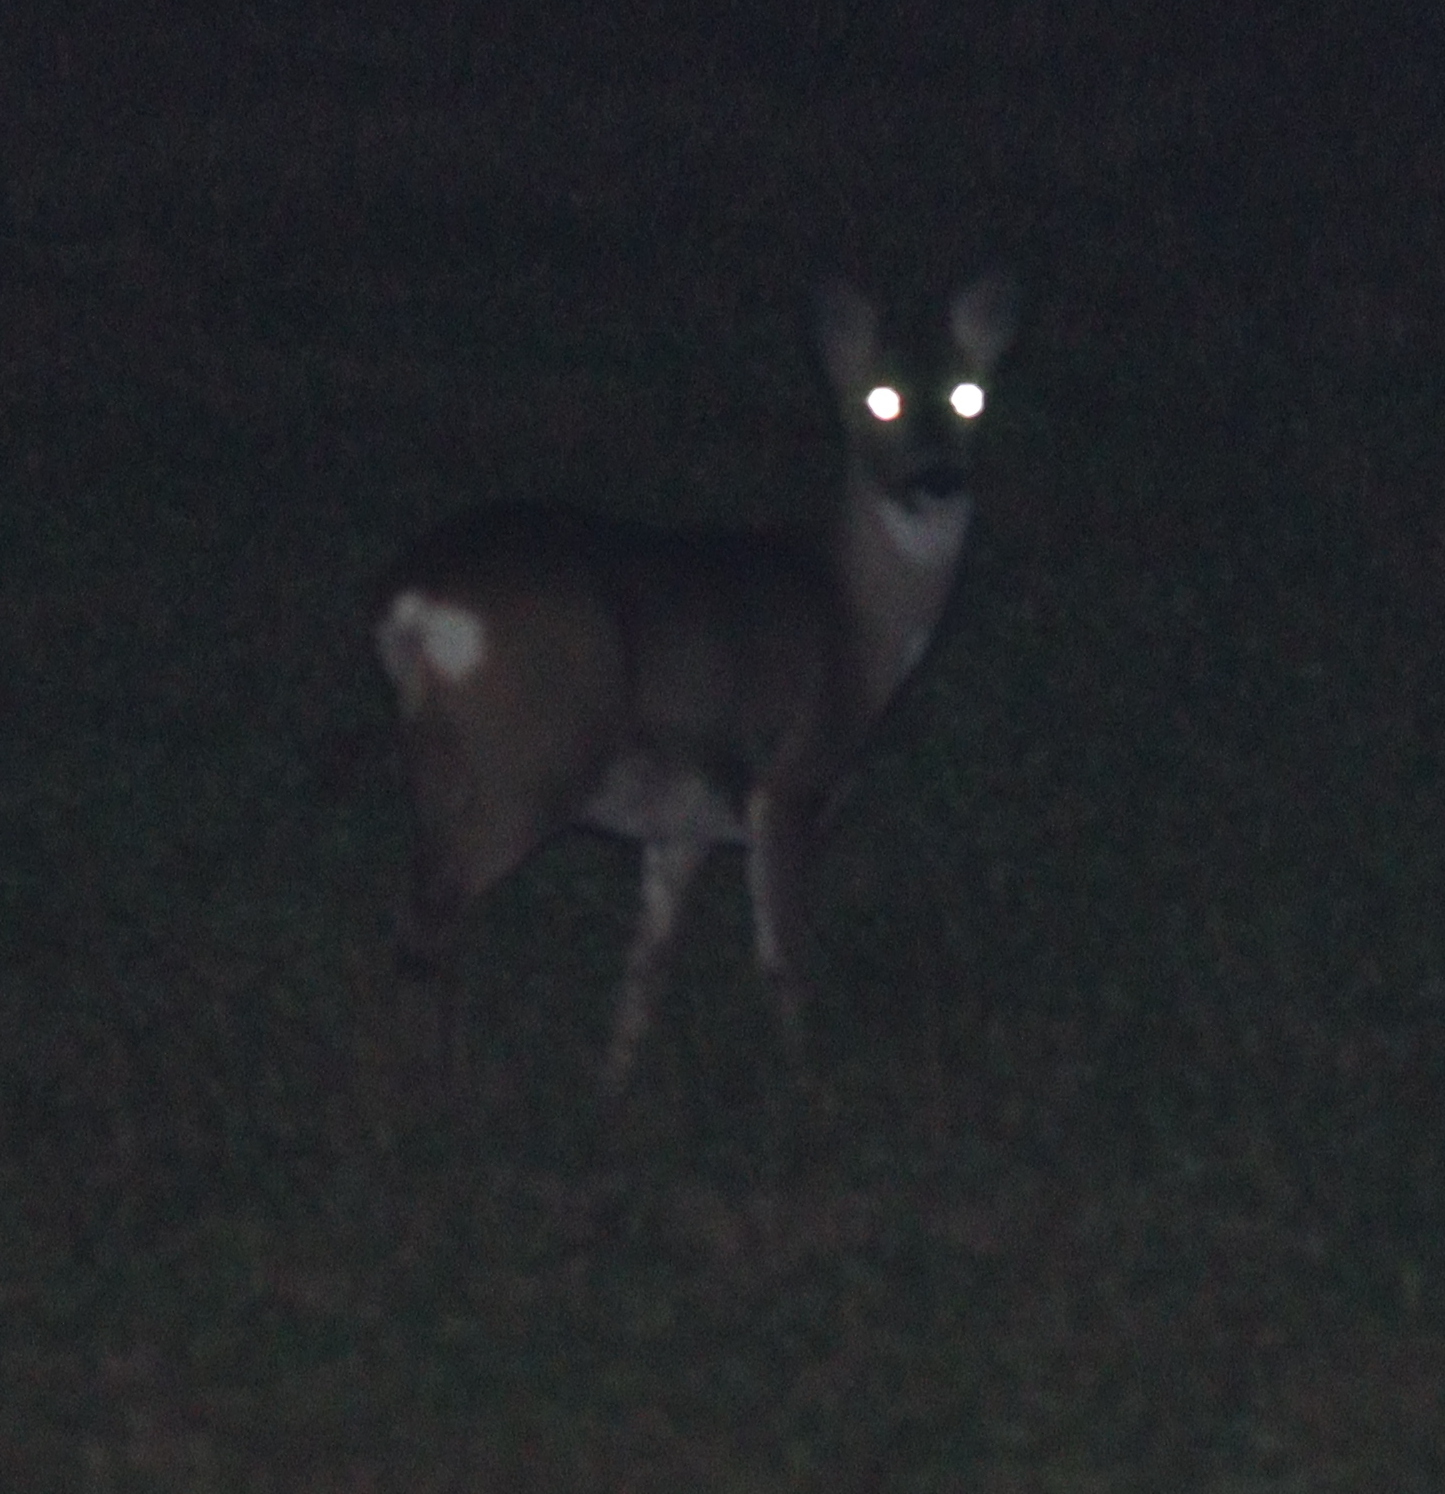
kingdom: Animalia
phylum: Chordata
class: Mammalia
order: Artiodactyla
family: Cervidae
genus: Capreolus
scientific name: Capreolus capreolus
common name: Western roe deer
